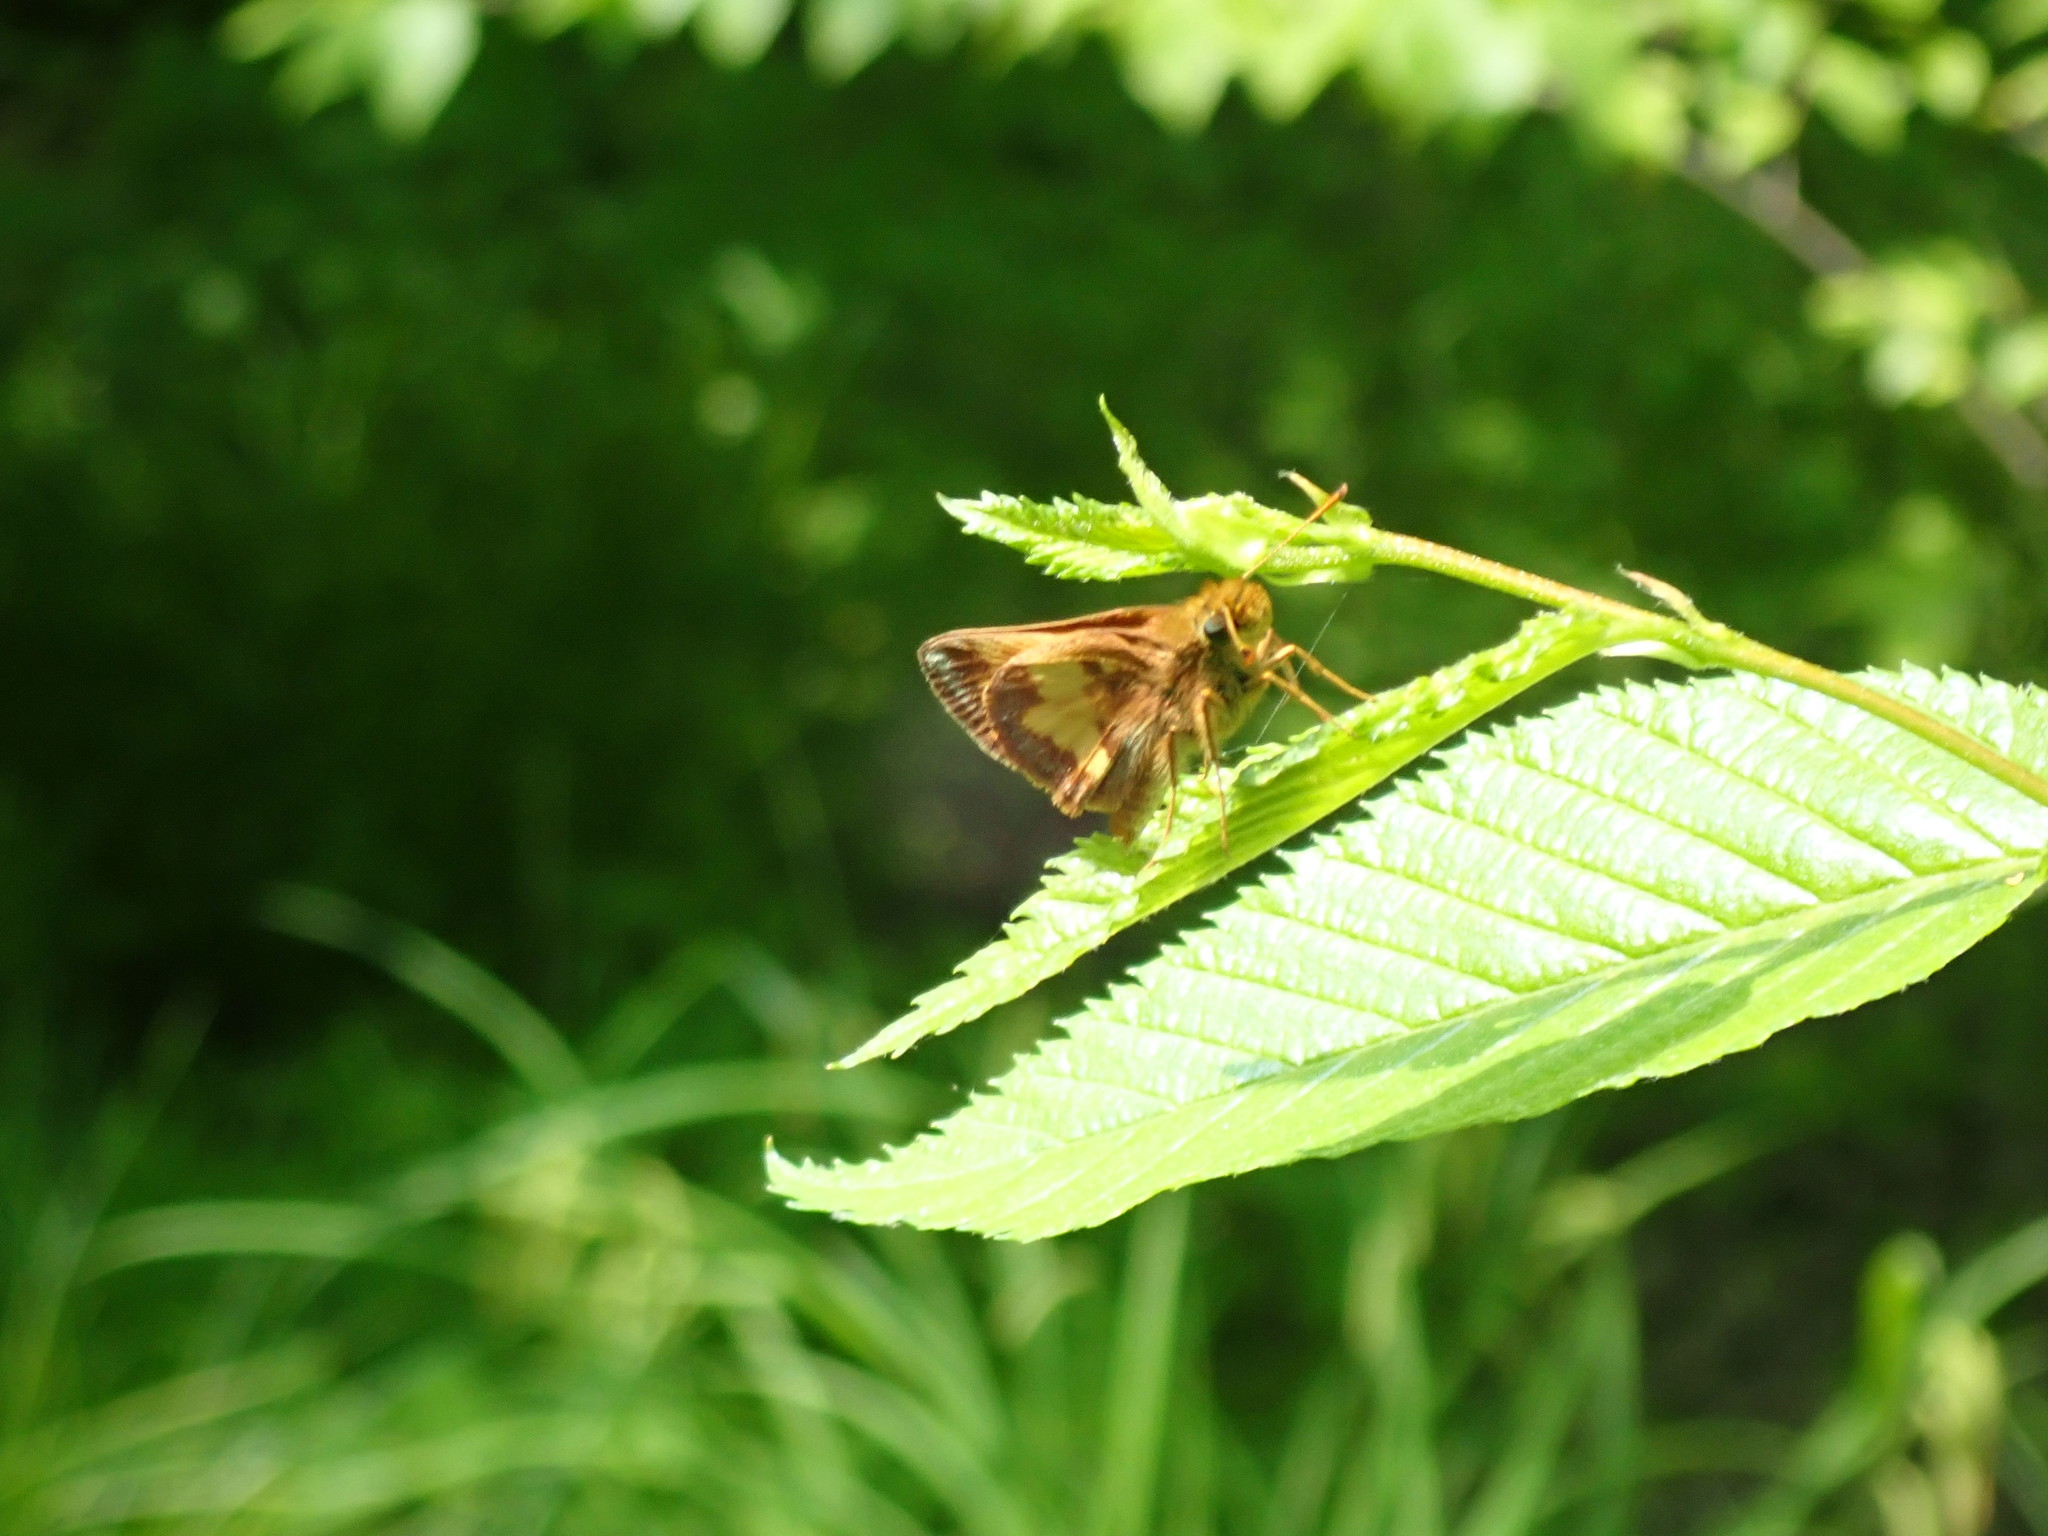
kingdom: Animalia
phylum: Arthropoda
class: Insecta
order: Lepidoptera
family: Hesperiidae
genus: Lon
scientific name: Lon hobomok
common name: Hobomok skipper
